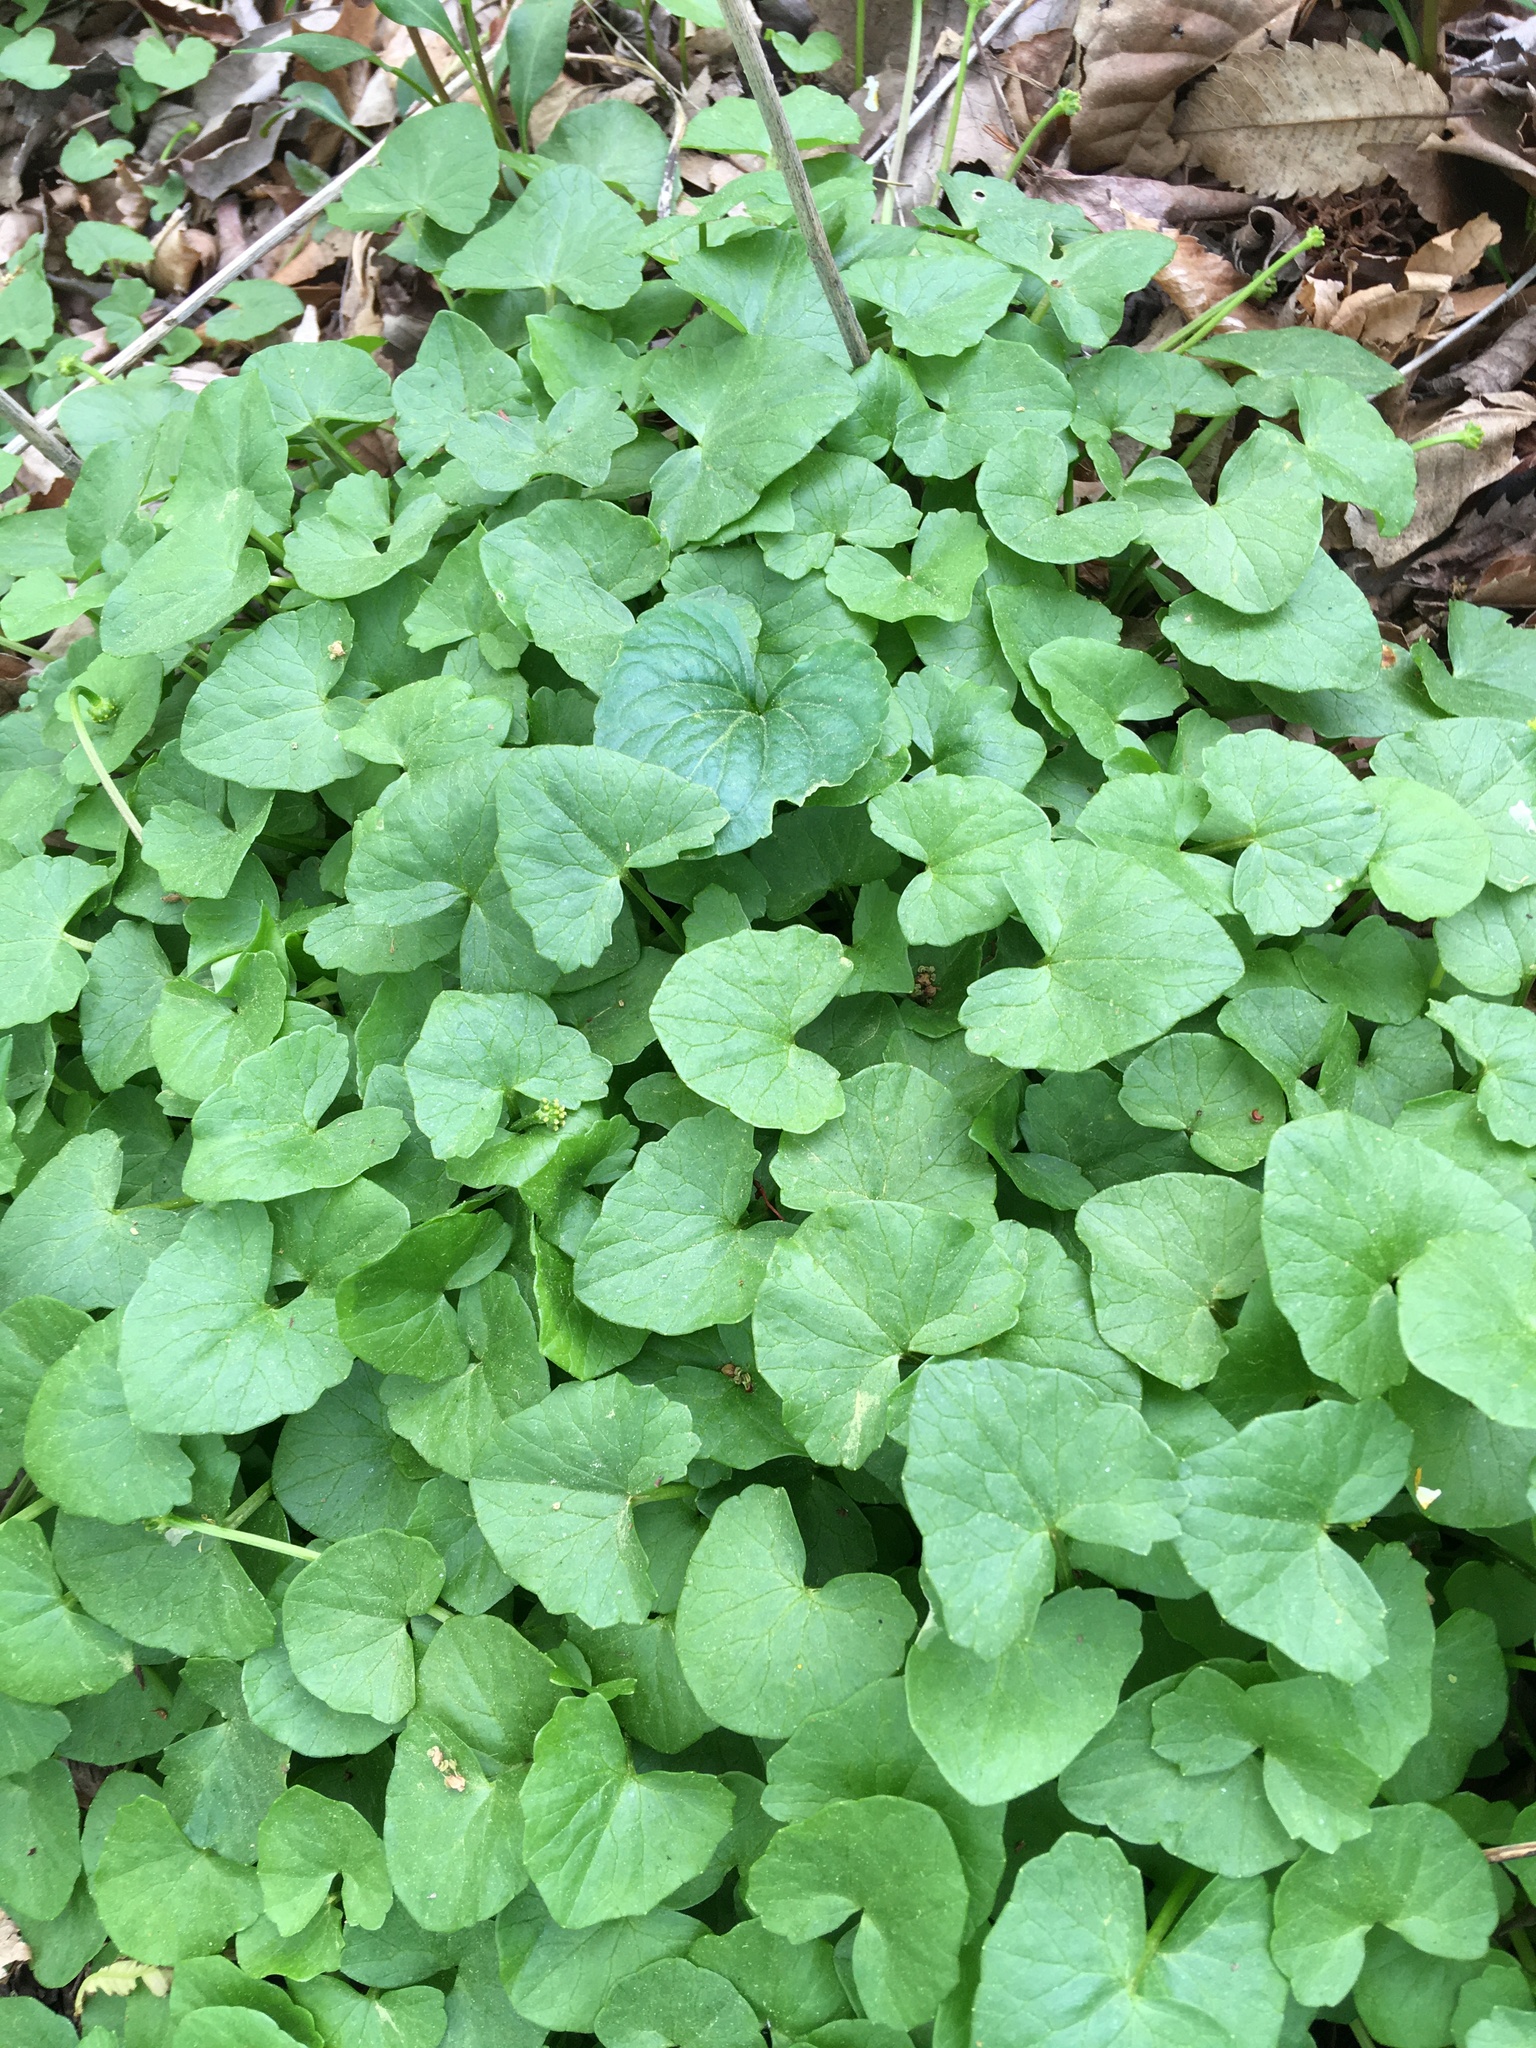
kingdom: Plantae
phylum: Tracheophyta
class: Magnoliopsida
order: Ranunculales
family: Ranunculaceae
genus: Ficaria
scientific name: Ficaria verna
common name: Lesser celandine
